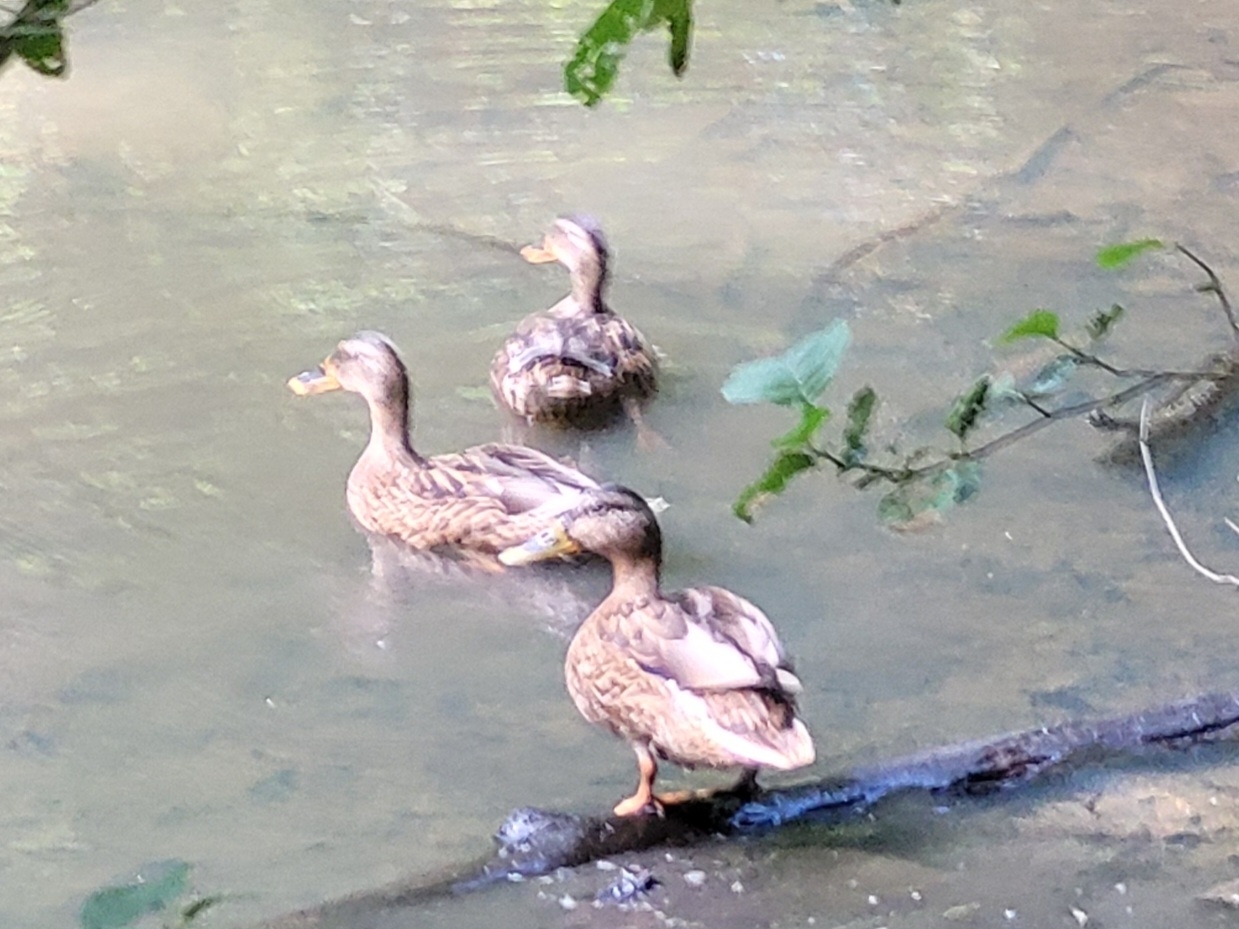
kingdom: Animalia
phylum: Chordata
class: Aves
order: Anseriformes
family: Anatidae
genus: Anas
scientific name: Anas platyrhynchos
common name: Mallard
